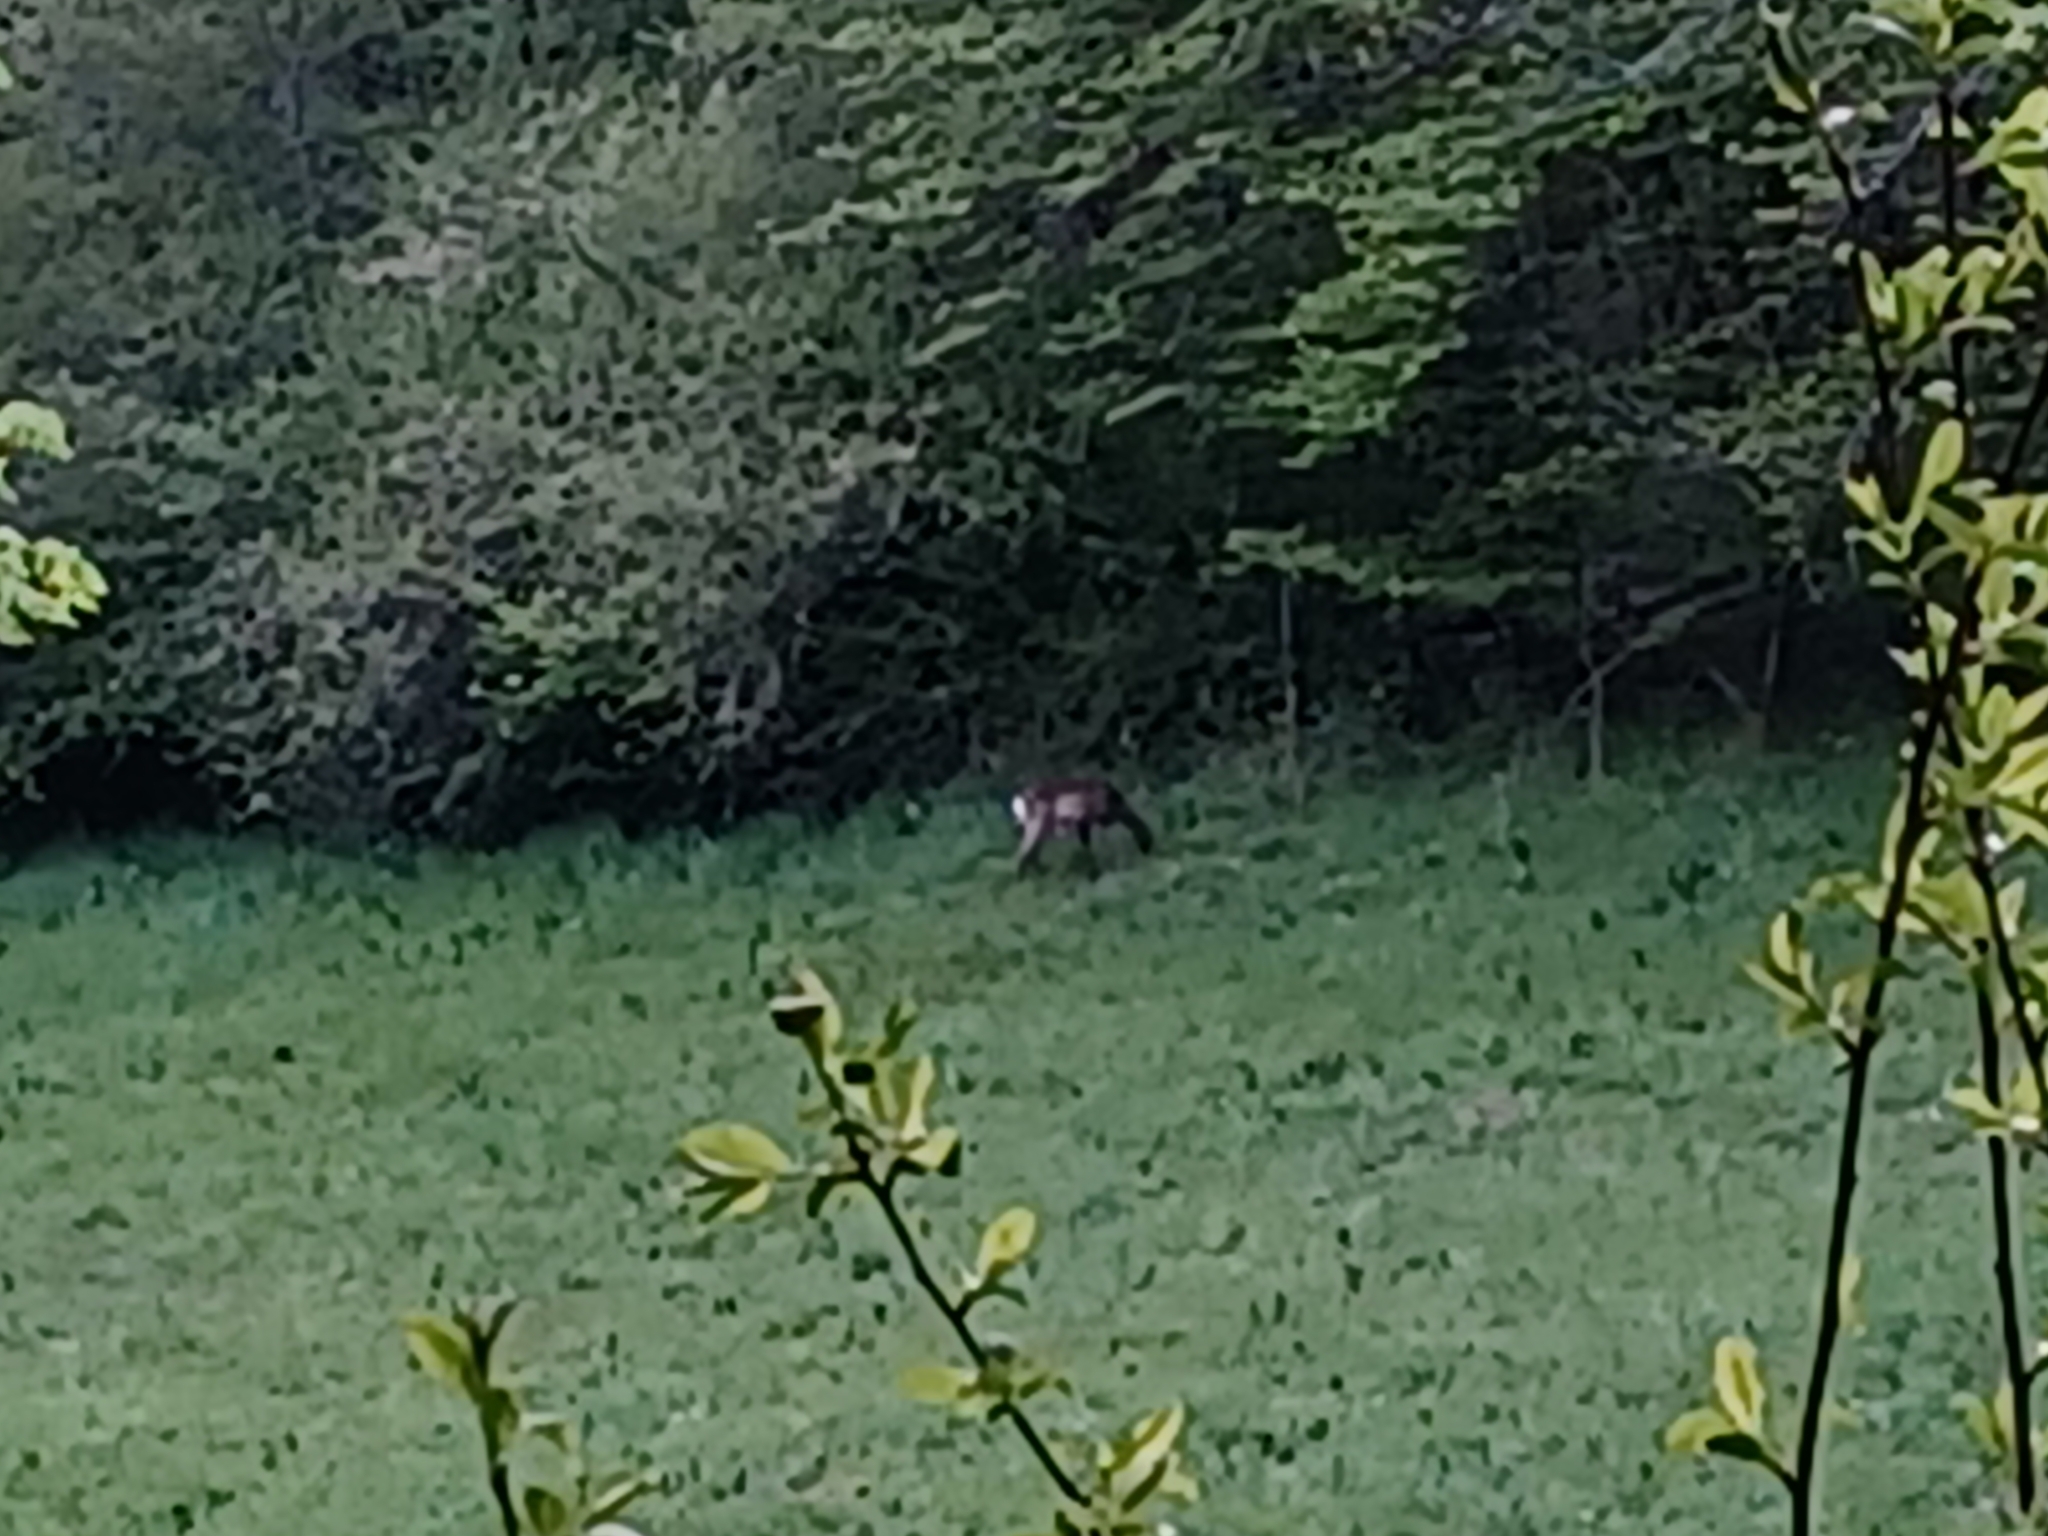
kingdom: Animalia
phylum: Chordata
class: Mammalia
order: Artiodactyla
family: Cervidae
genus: Capreolus
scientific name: Capreolus capreolus
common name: Western roe deer
